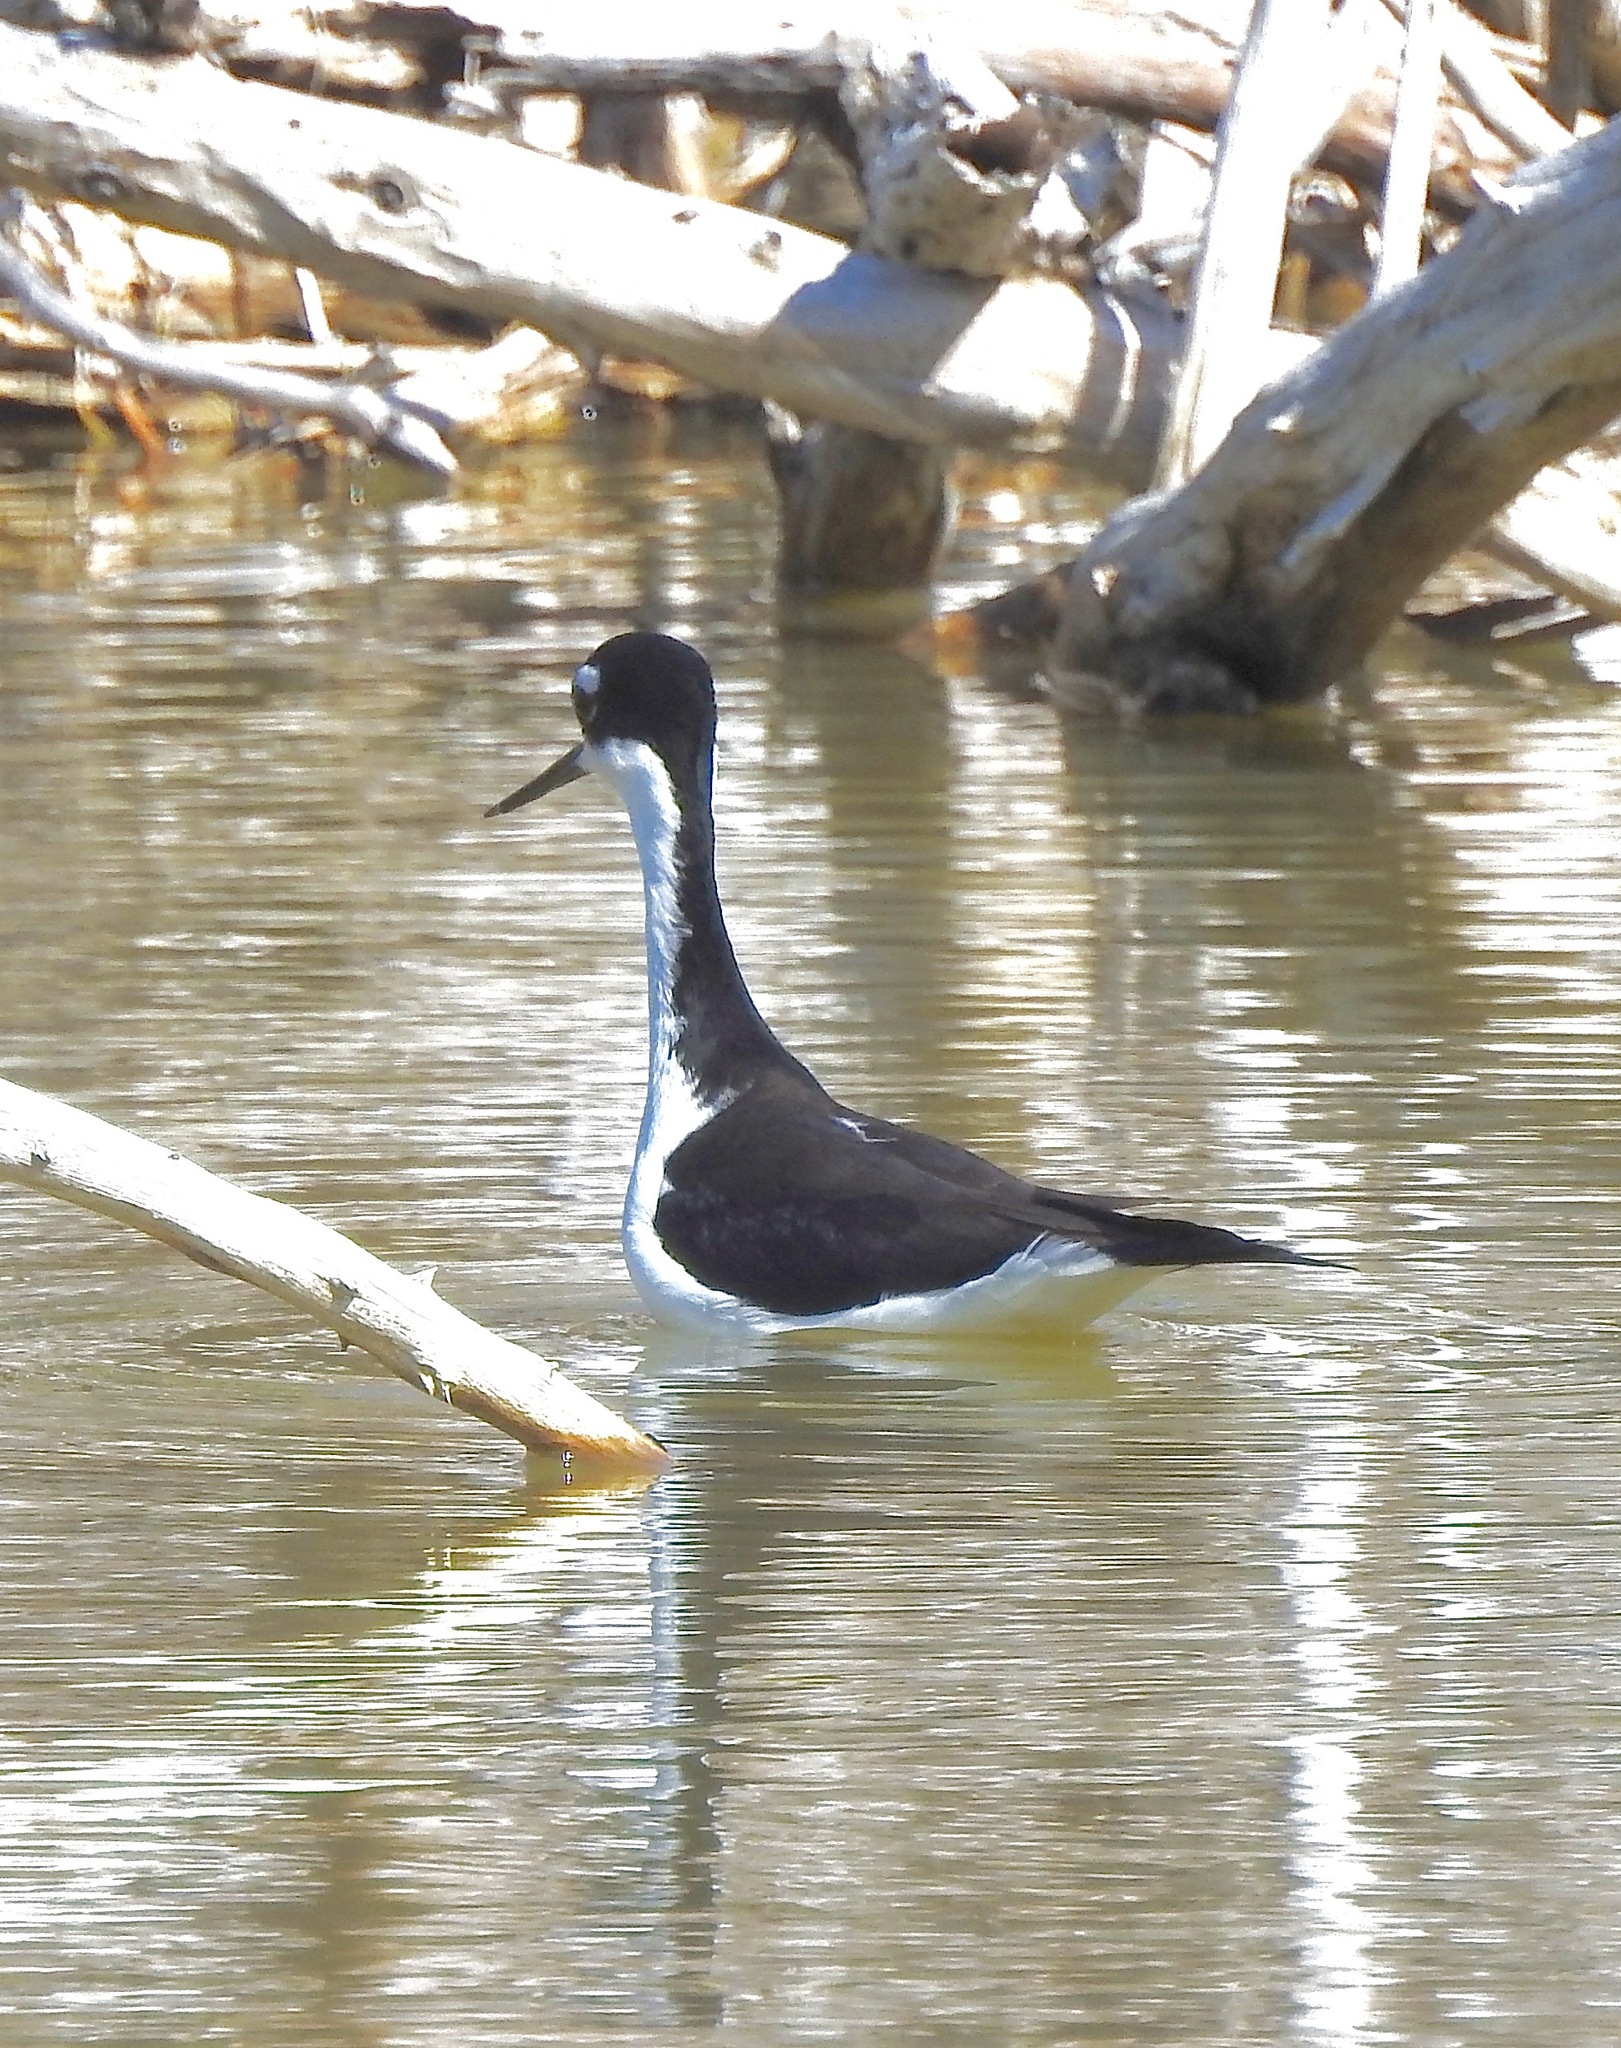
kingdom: Animalia
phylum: Chordata
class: Aves
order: Charadriiformes
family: Recurvirostridae
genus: Himantopus
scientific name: Himantopus mexicanus
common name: Black-necked stilt
